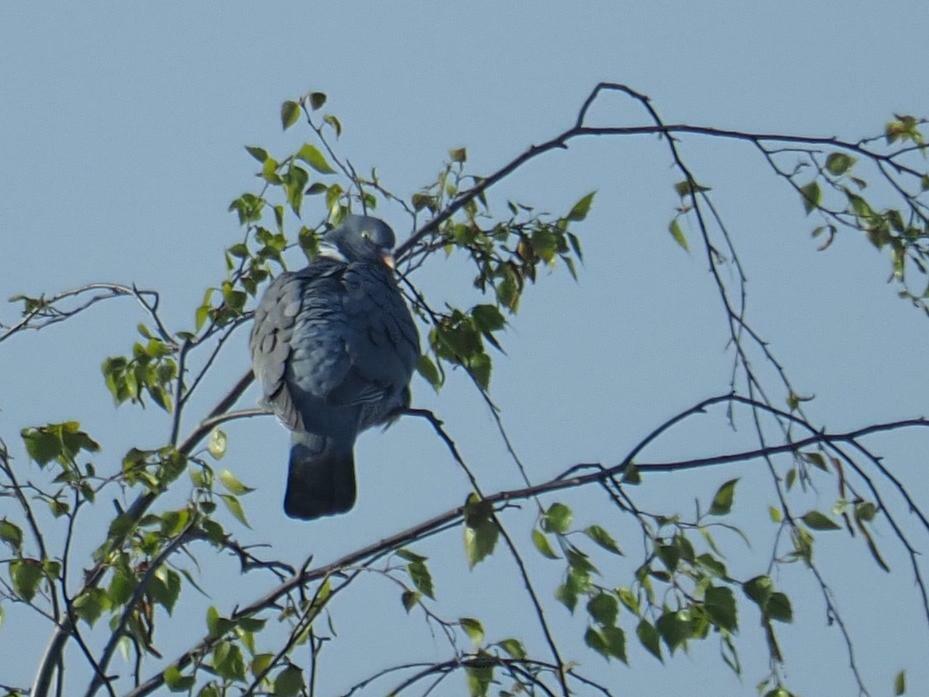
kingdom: Animalia
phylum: Chordata
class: Aves
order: Columbiformes
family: Columbidae
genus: Columba
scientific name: Columba palumbus
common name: Common wood pigeon
